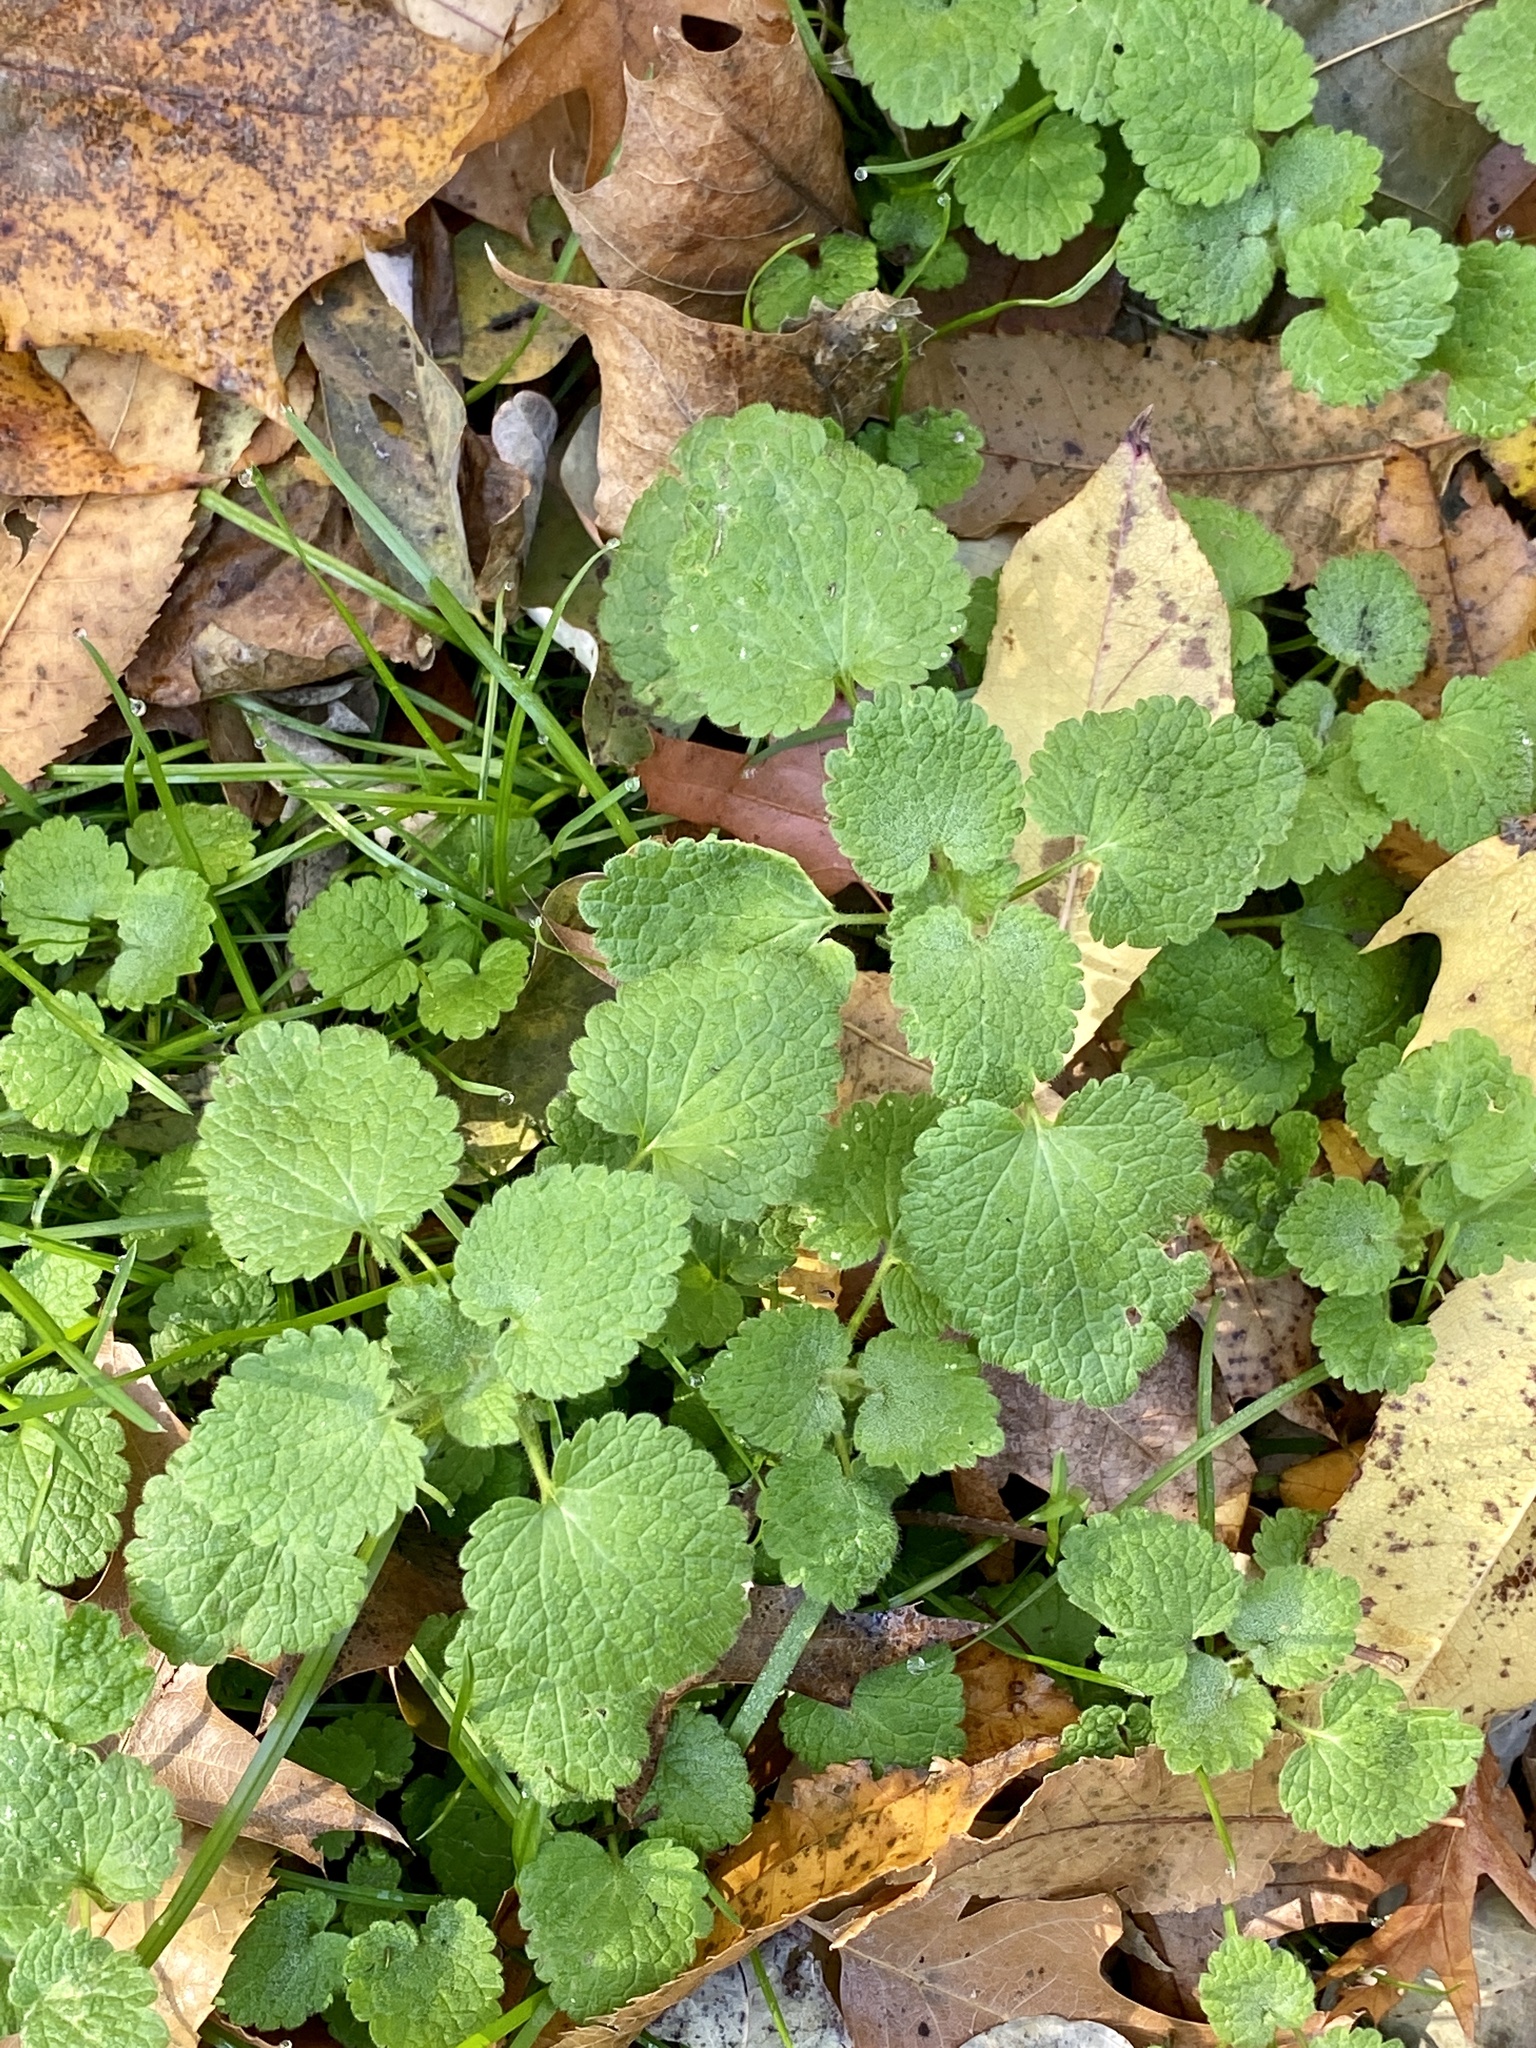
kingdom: Plantae
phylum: Tracheophyta
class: Magnoliopsida
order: Lamiales
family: Lamiaceae
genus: Lamium
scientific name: Lamium purpureum
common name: Red dead-nettle
